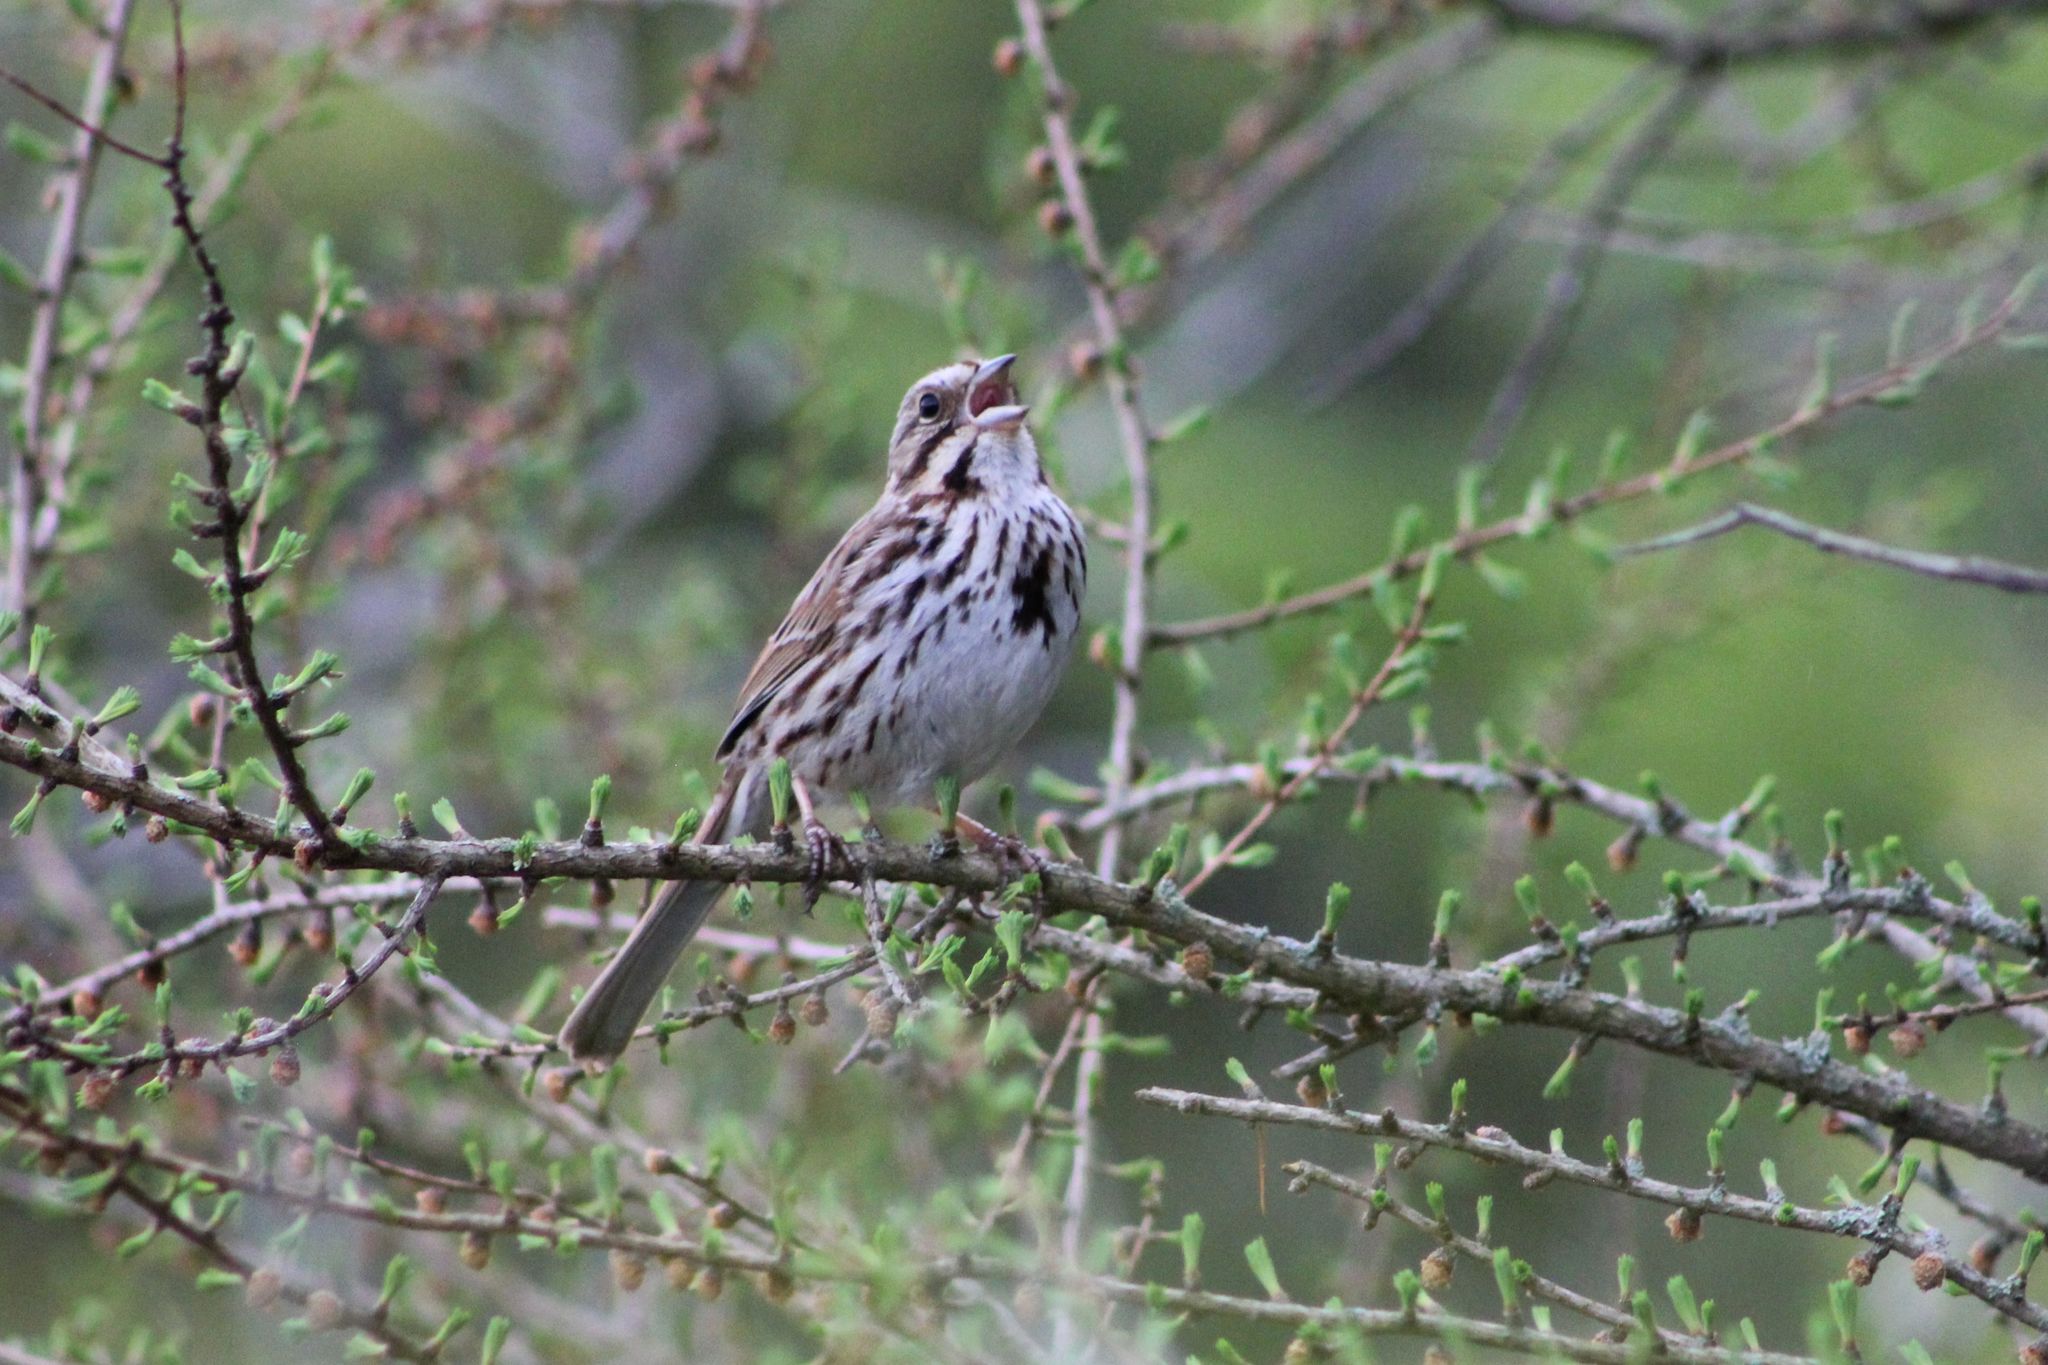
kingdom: Animalia
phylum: Chordata
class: Aves
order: Passeriformes
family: Passerellidae
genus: Melospiza
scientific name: Melospiza melodia
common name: Song sparrow
